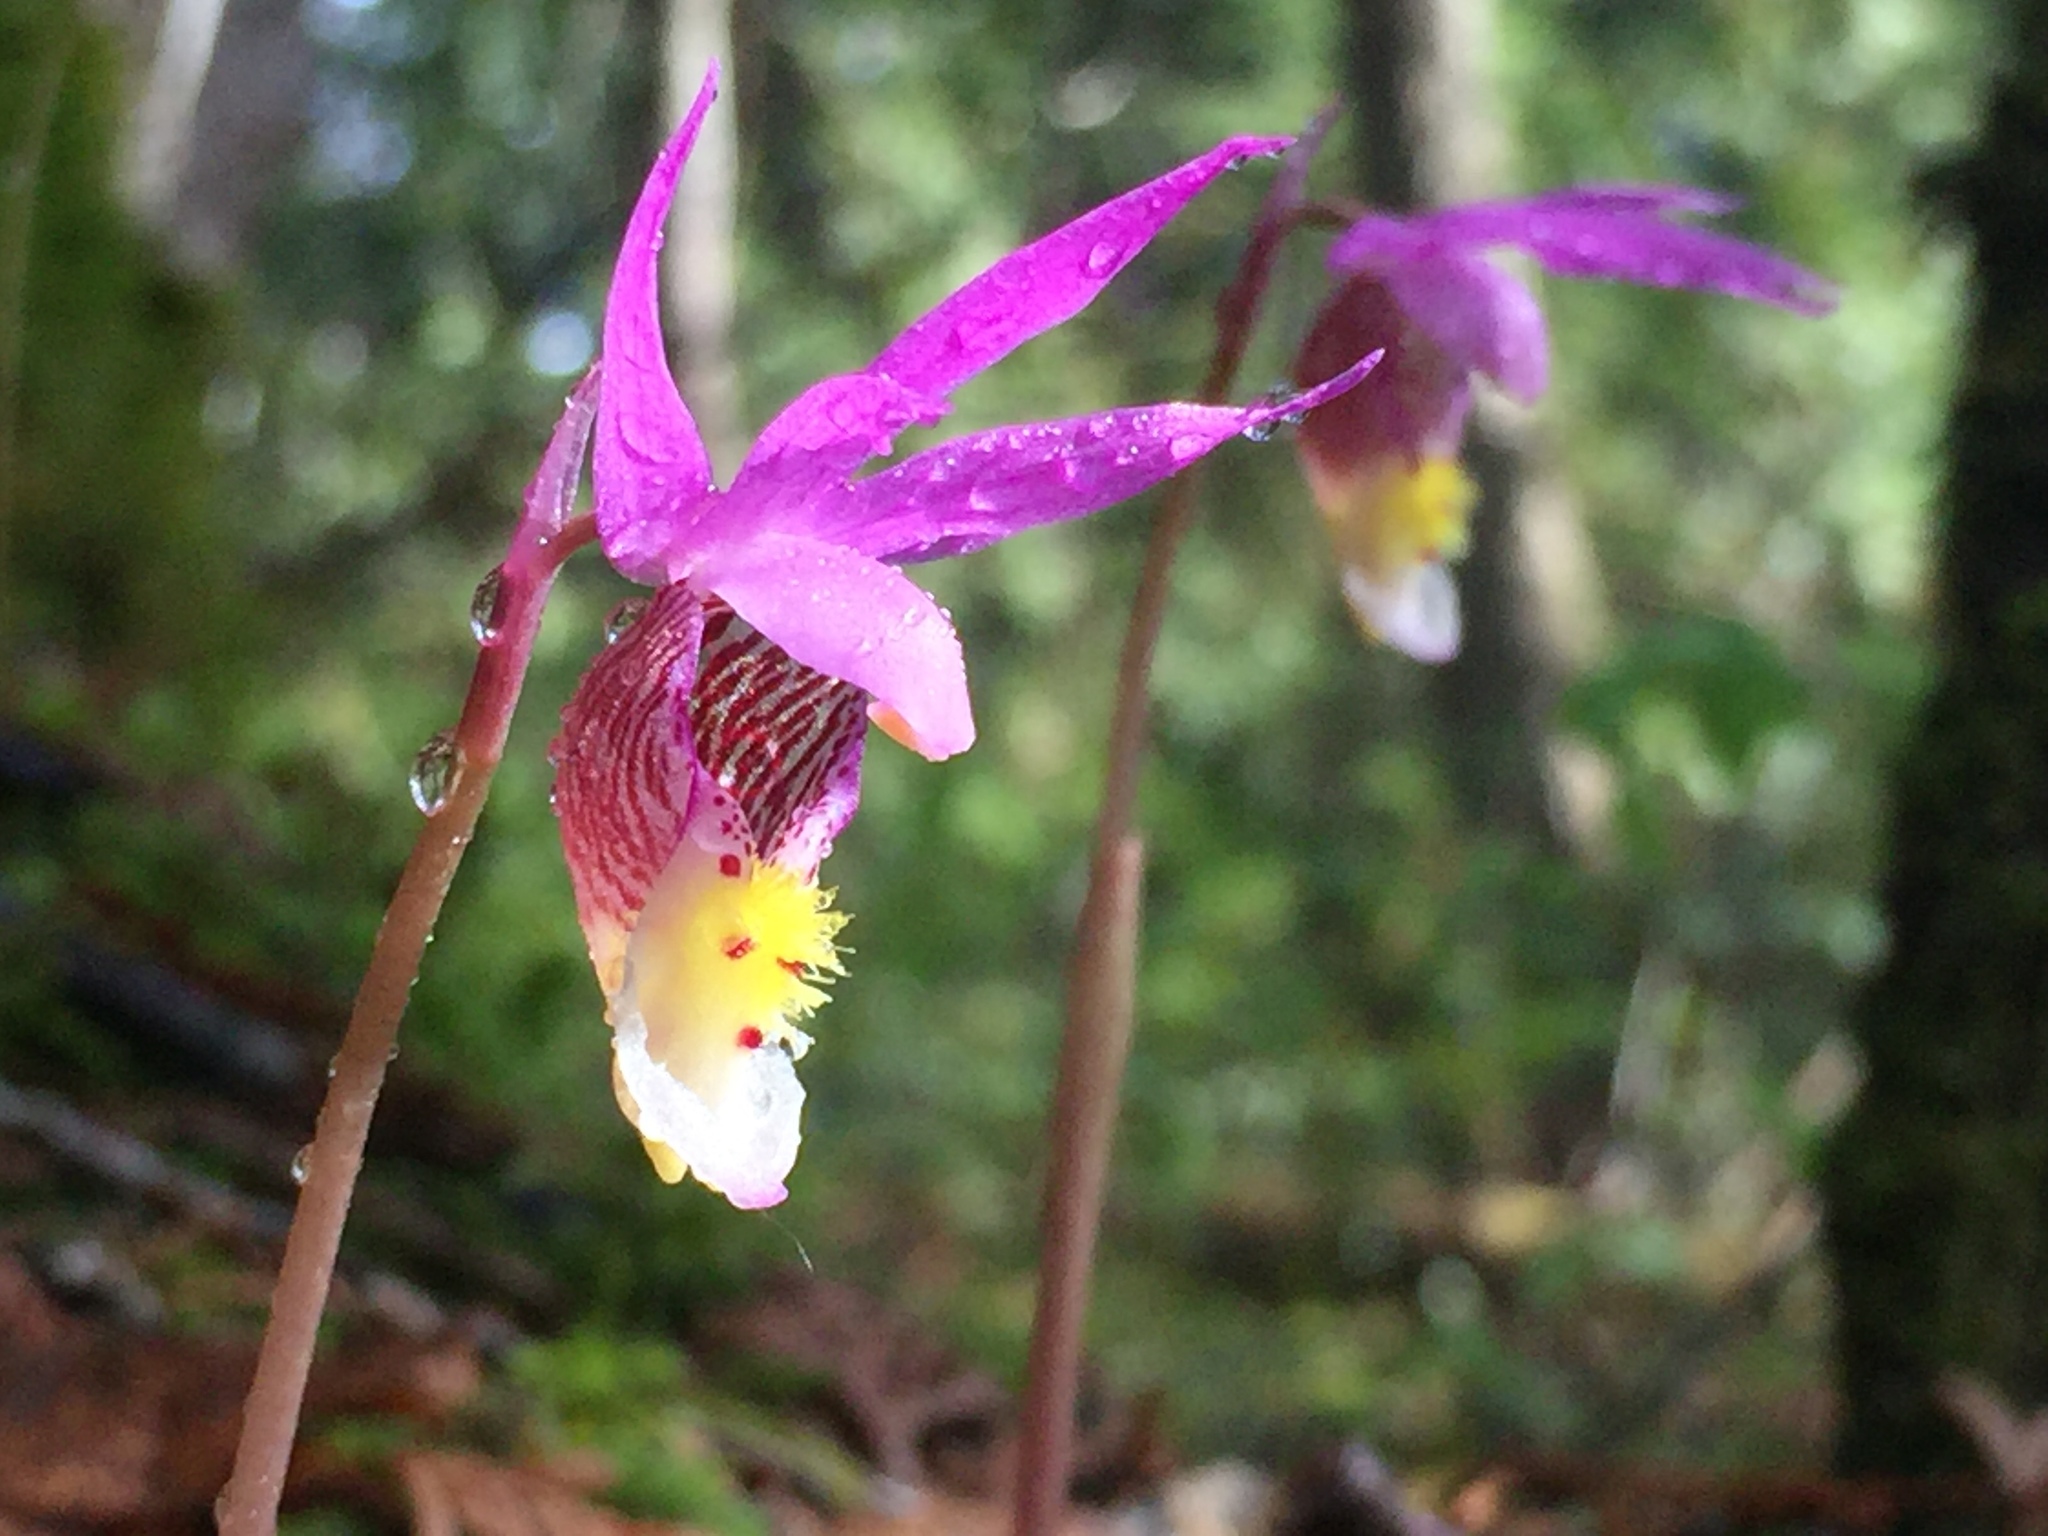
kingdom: Plantae
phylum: Tracheophyta
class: Liliopsida
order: Asparagales
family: Orchidaceae
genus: Calypso
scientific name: Calypso bulbosa
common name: Calypso
